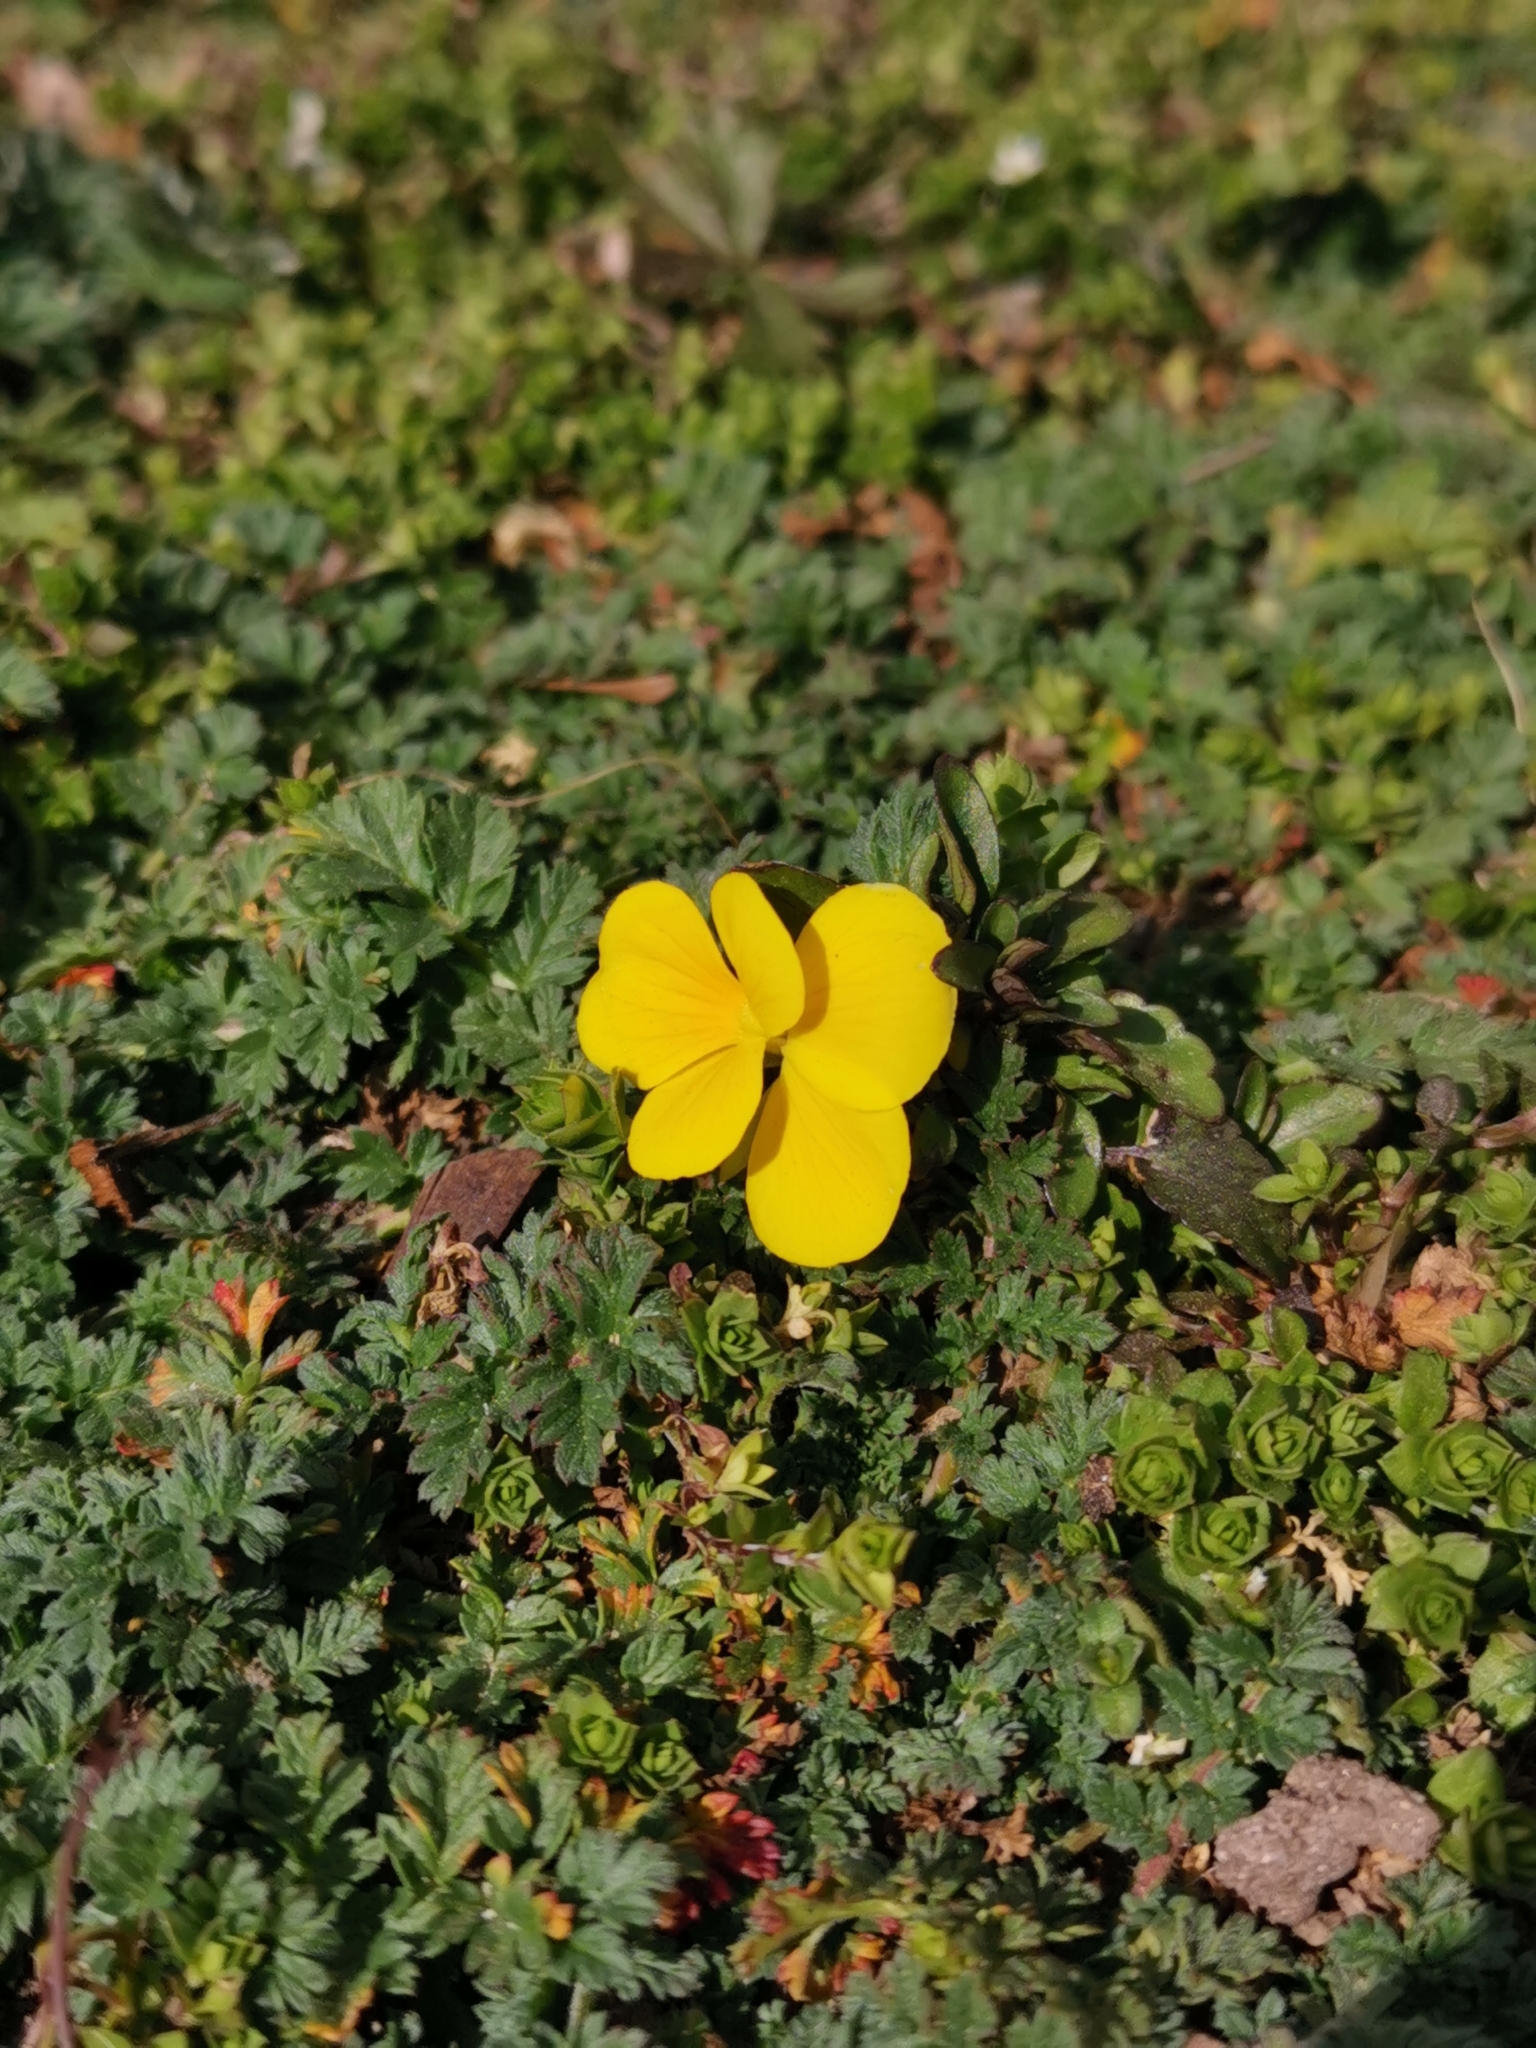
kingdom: Plantae
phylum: Tracheophyta
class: Magnoliopsida
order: Malpighiales
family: Violaceae
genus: Viola
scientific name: Viola wittrockiana
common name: Garden pansy
